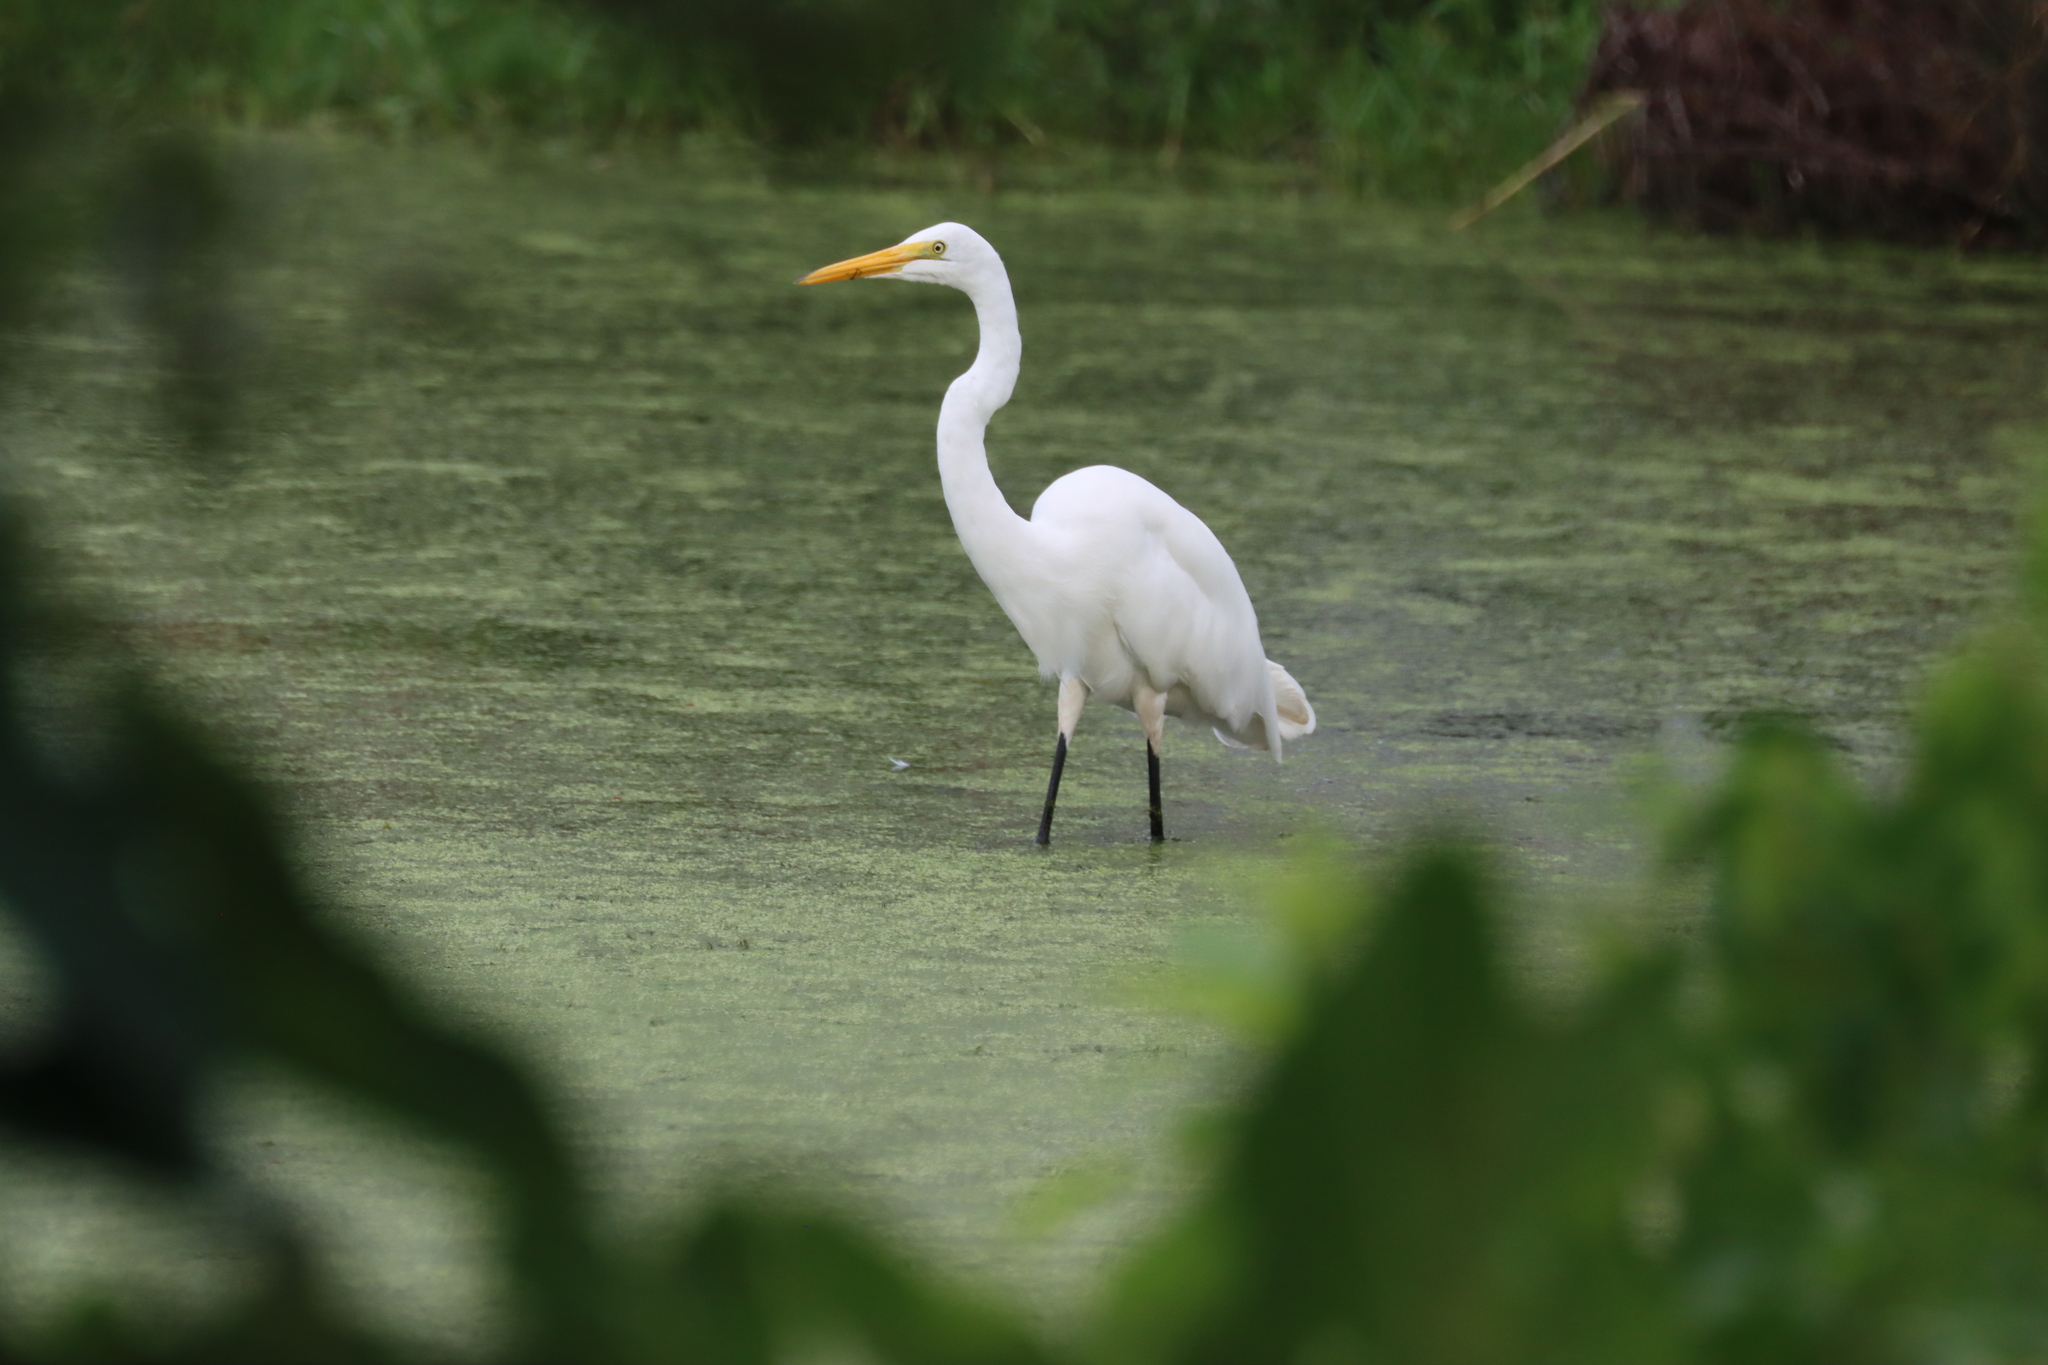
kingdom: Animalia
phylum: Chordata
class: Aves
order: Pelecaniformes
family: Ardeidae
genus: Ardea
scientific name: Ardea alba
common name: Great egret
